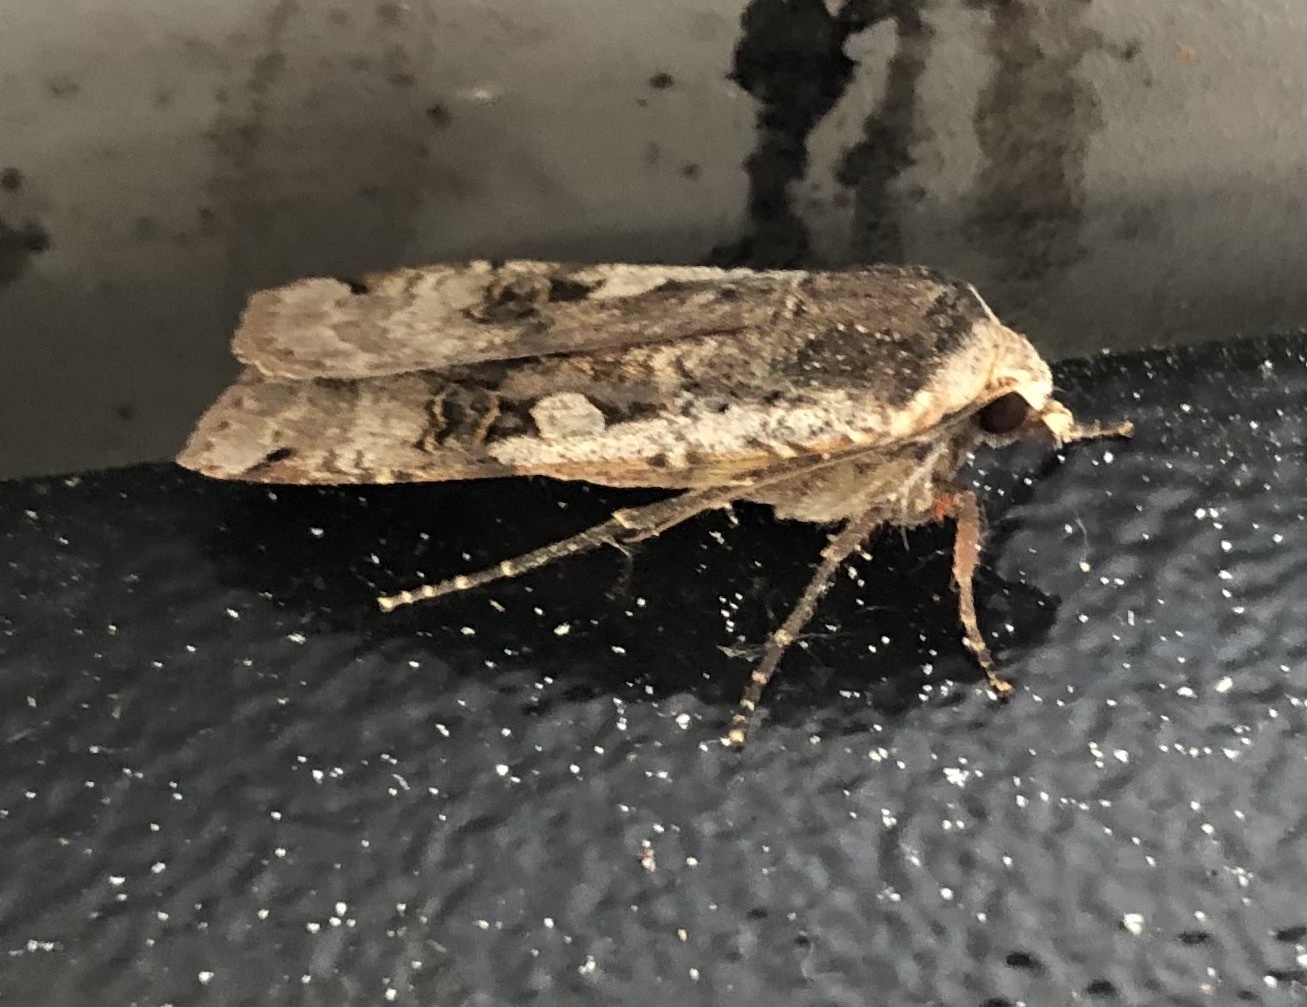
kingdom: Animalia
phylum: Arthropoda
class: Insecta
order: Lepidoptera
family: Noctuidae
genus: Noctua
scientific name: Noctua pronuba
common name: Large yellow underwing
